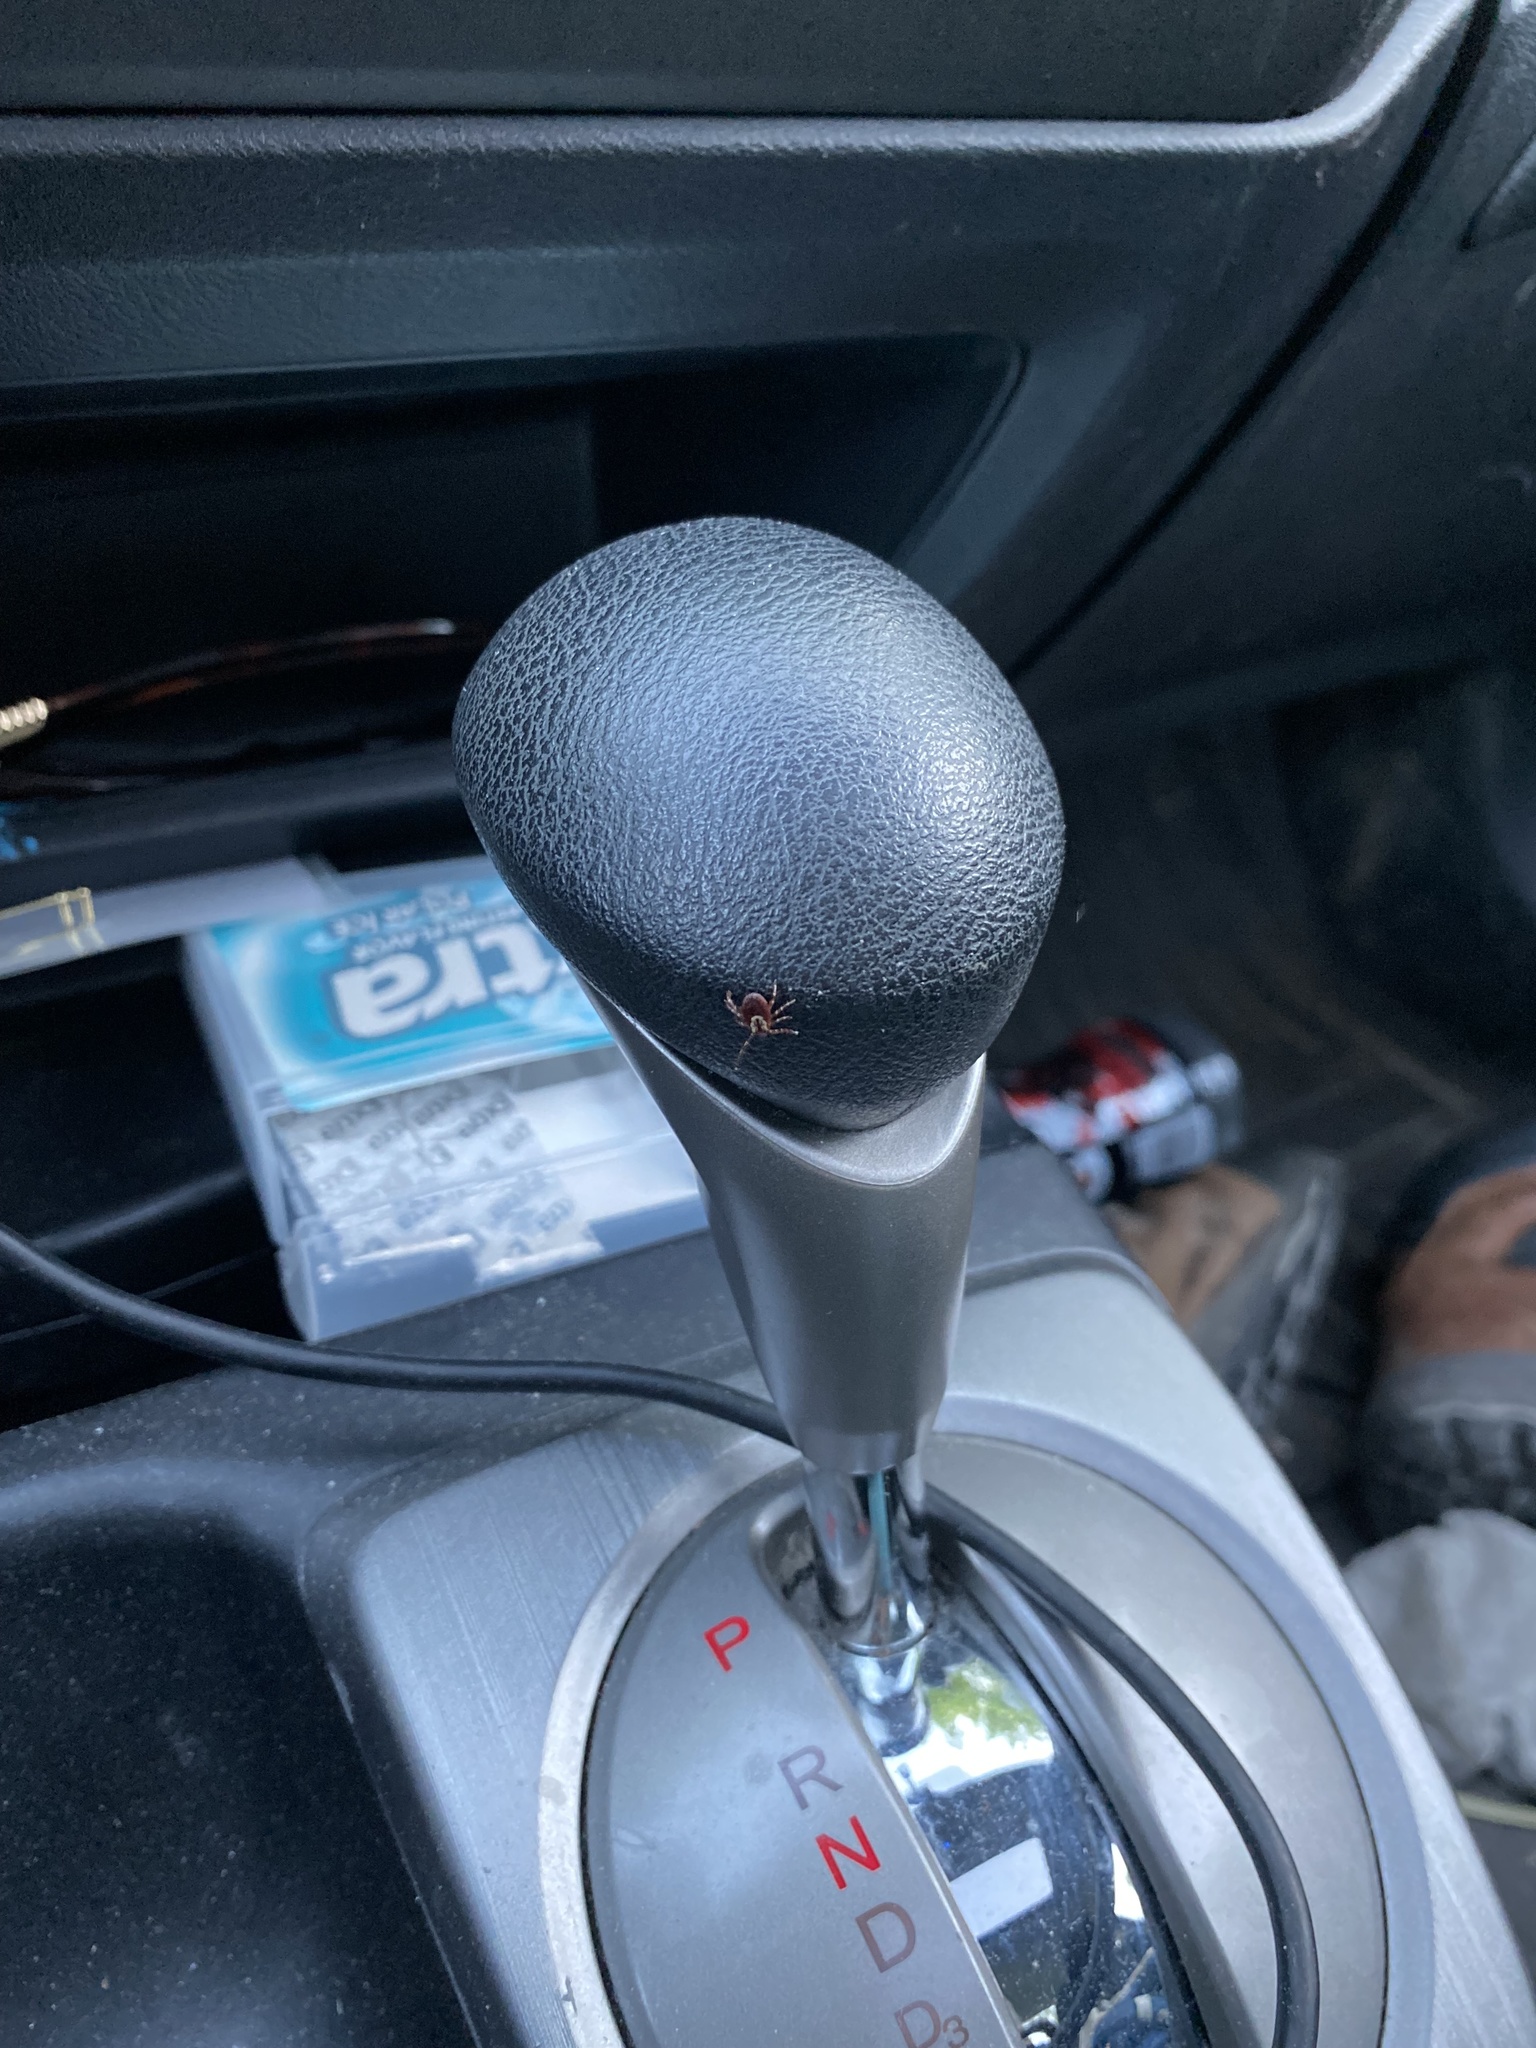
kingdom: Animalia
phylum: Arthropoda
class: Arachnida
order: Ixodida
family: Ixodidae
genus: Dermacentor
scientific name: Dermacentor variabilis
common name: American dog tick
